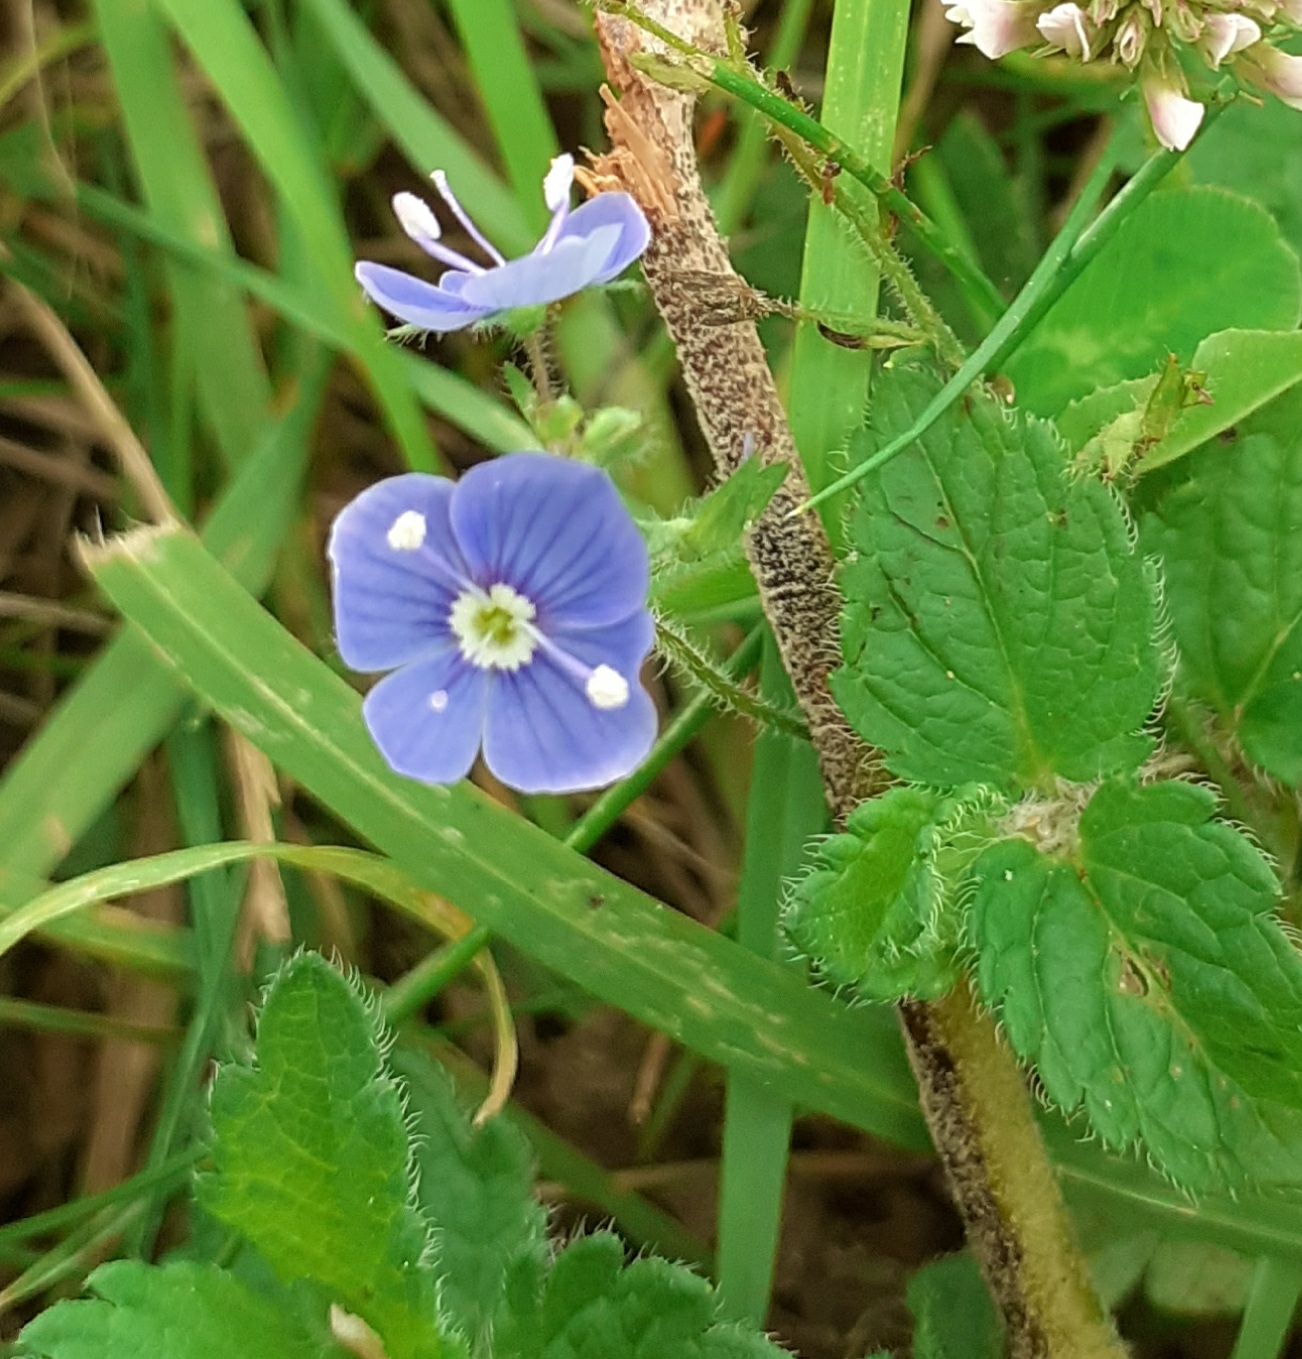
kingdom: Plantae
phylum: Tracheophyta
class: Magnoliopsida
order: Lamiales
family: Plantaginaceae
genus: Veronica
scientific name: Veronica chamaedrys
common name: Germander speedwell
